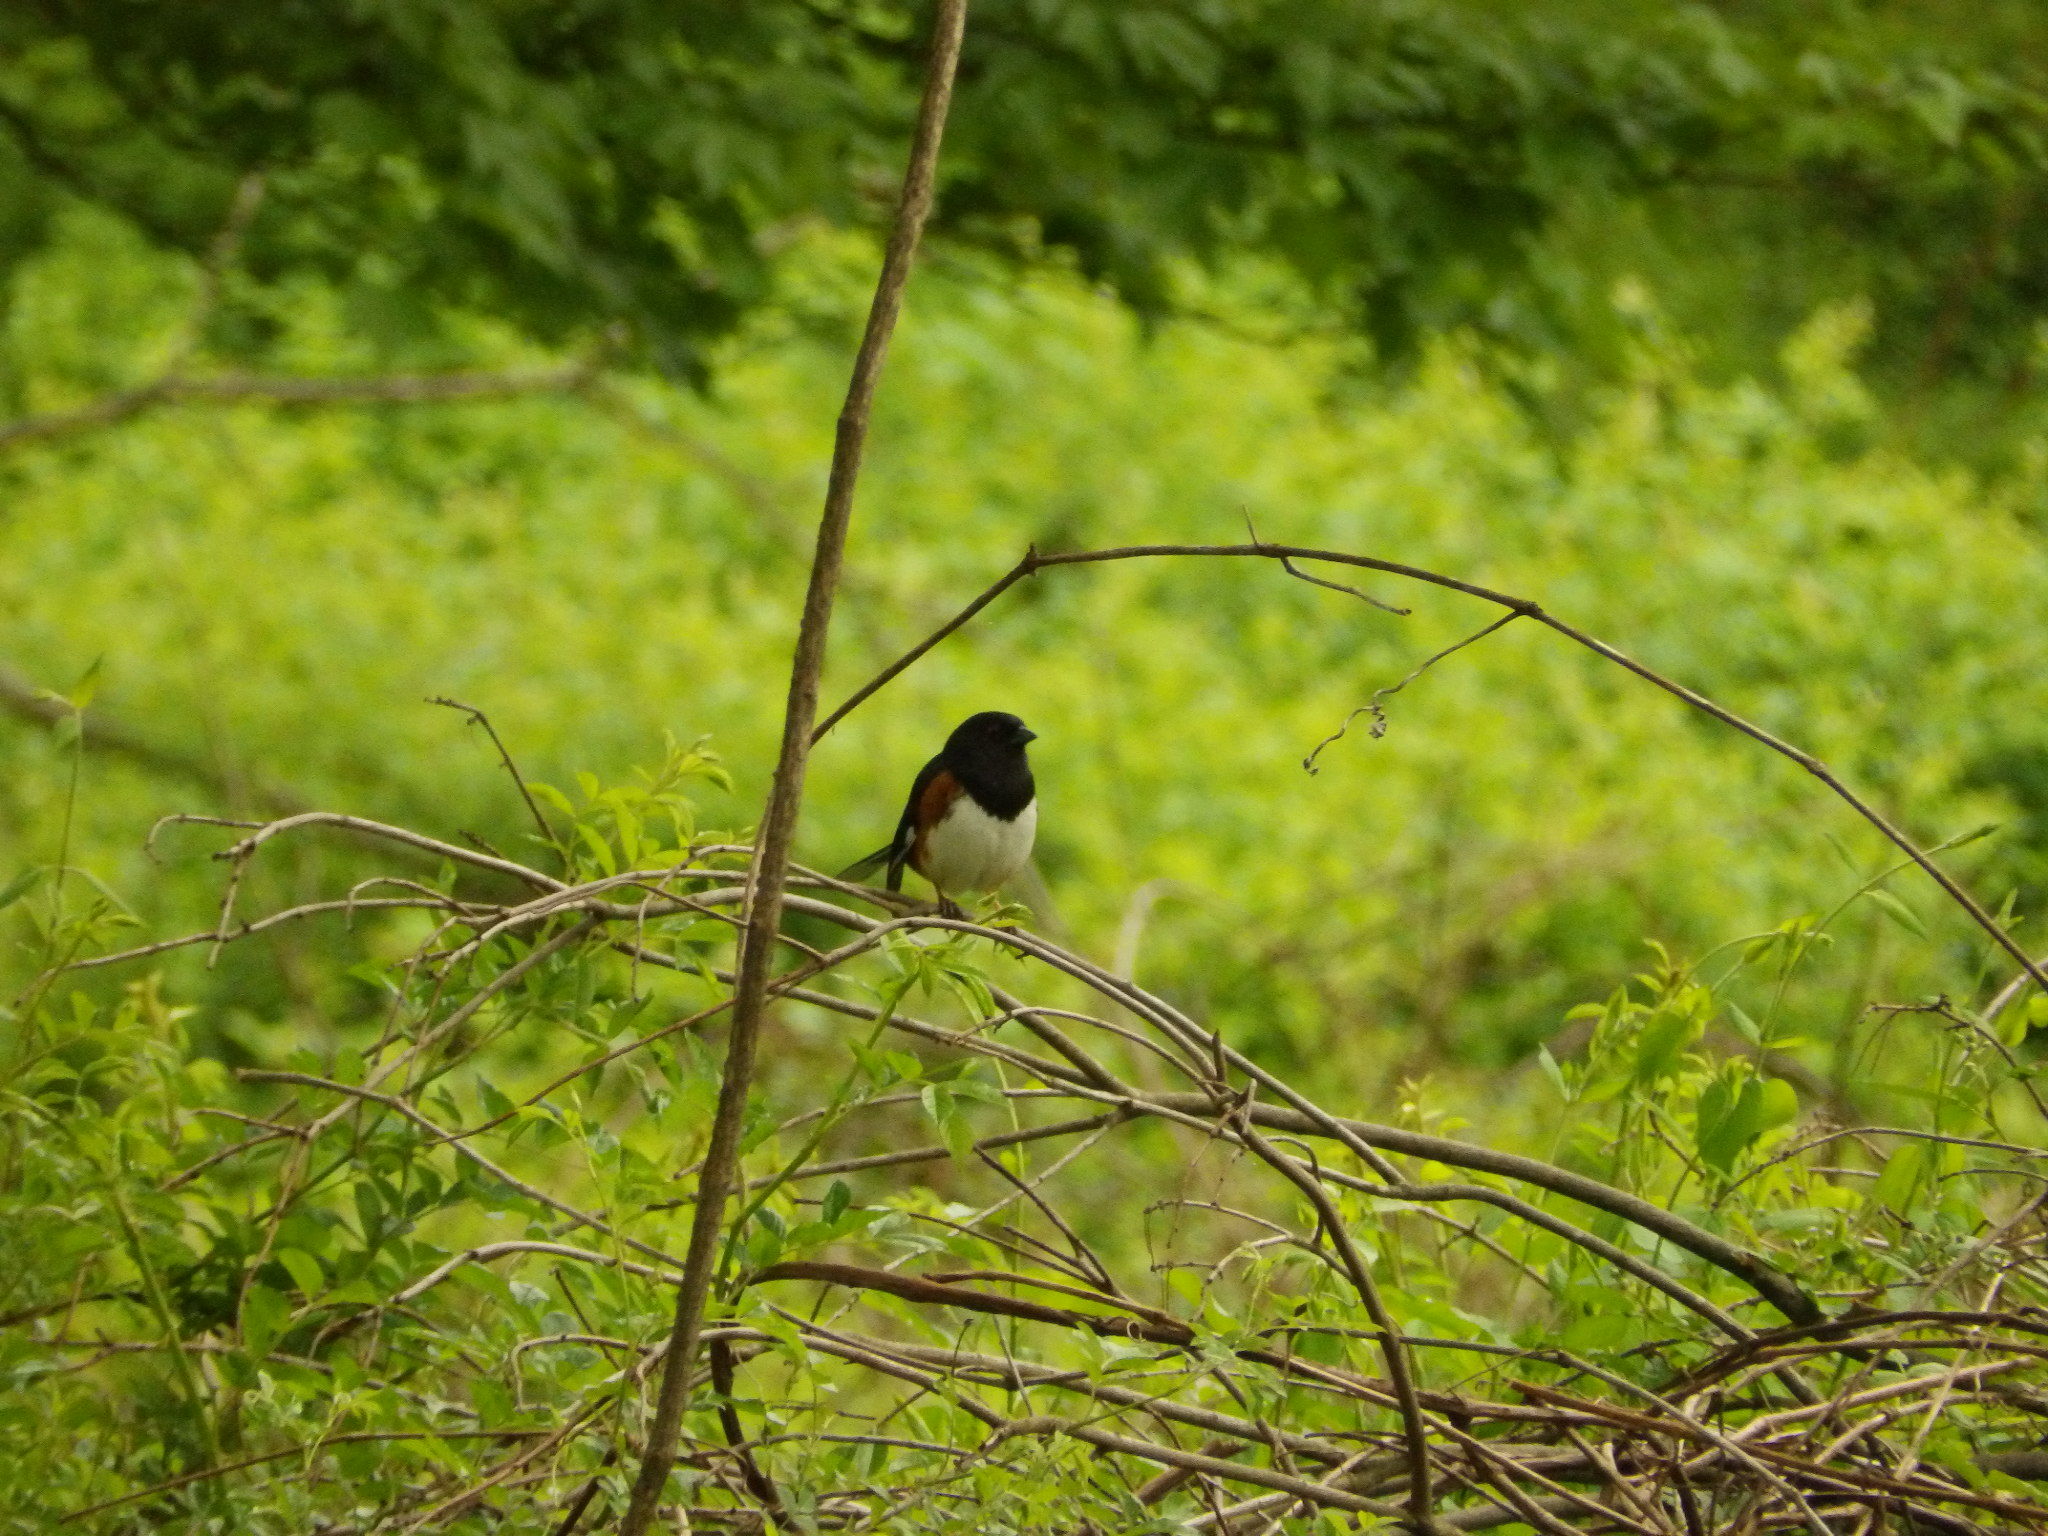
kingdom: Animalia
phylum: Chordata
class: Aves
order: Passeriformes
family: Passerellidae
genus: Pipilo
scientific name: Pipilo erythrophthalmus
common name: Eastern towhee
